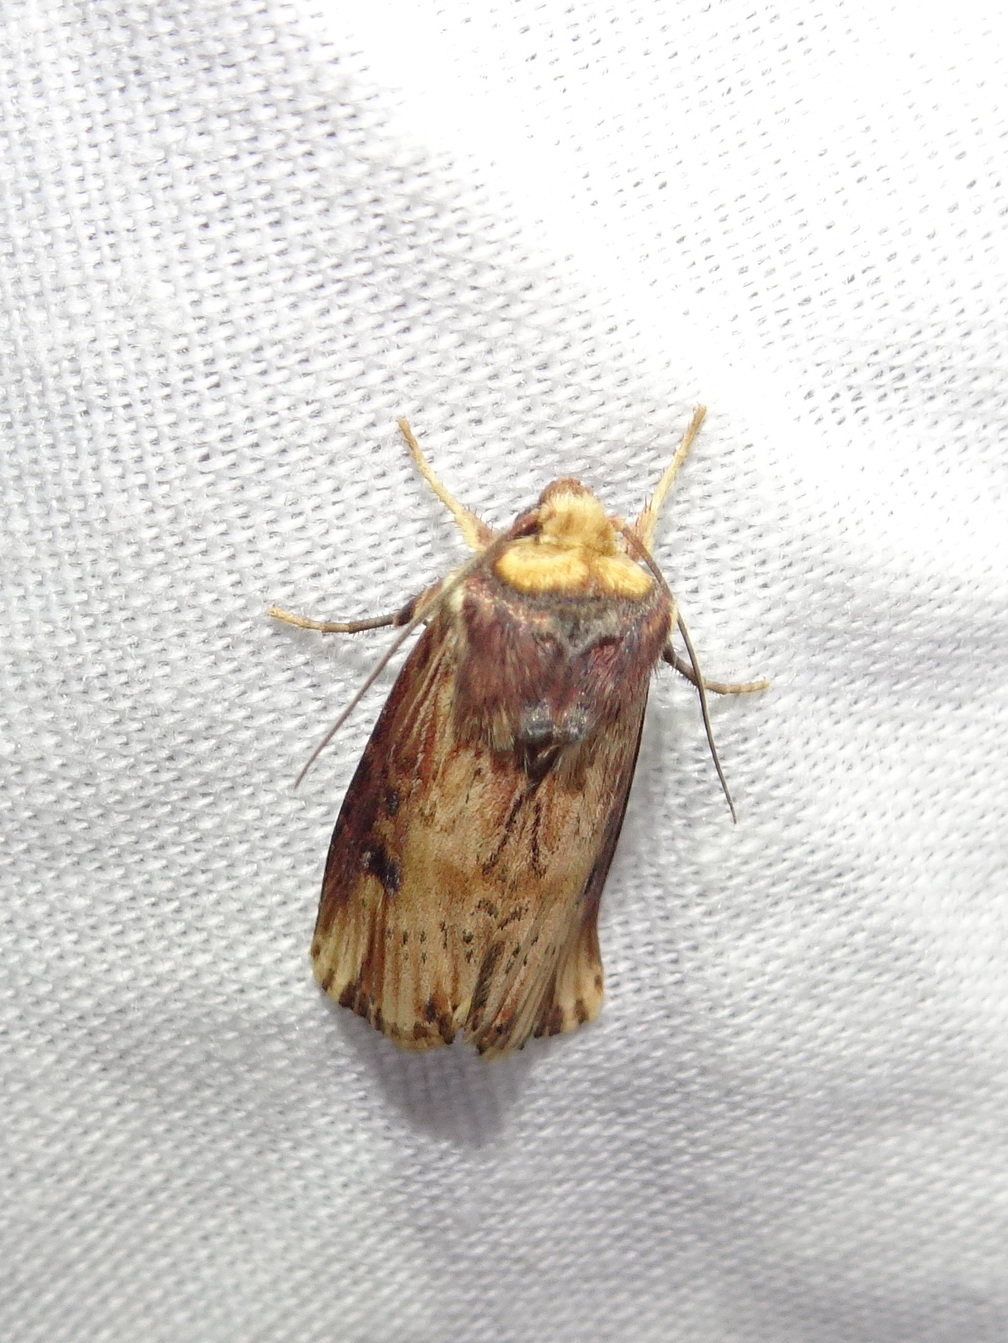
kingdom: Animalia
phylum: Arthropoda
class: Insecta
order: Lepidoptera
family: Noctuidae
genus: Axylia
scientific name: Axylia putris
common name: Flame
